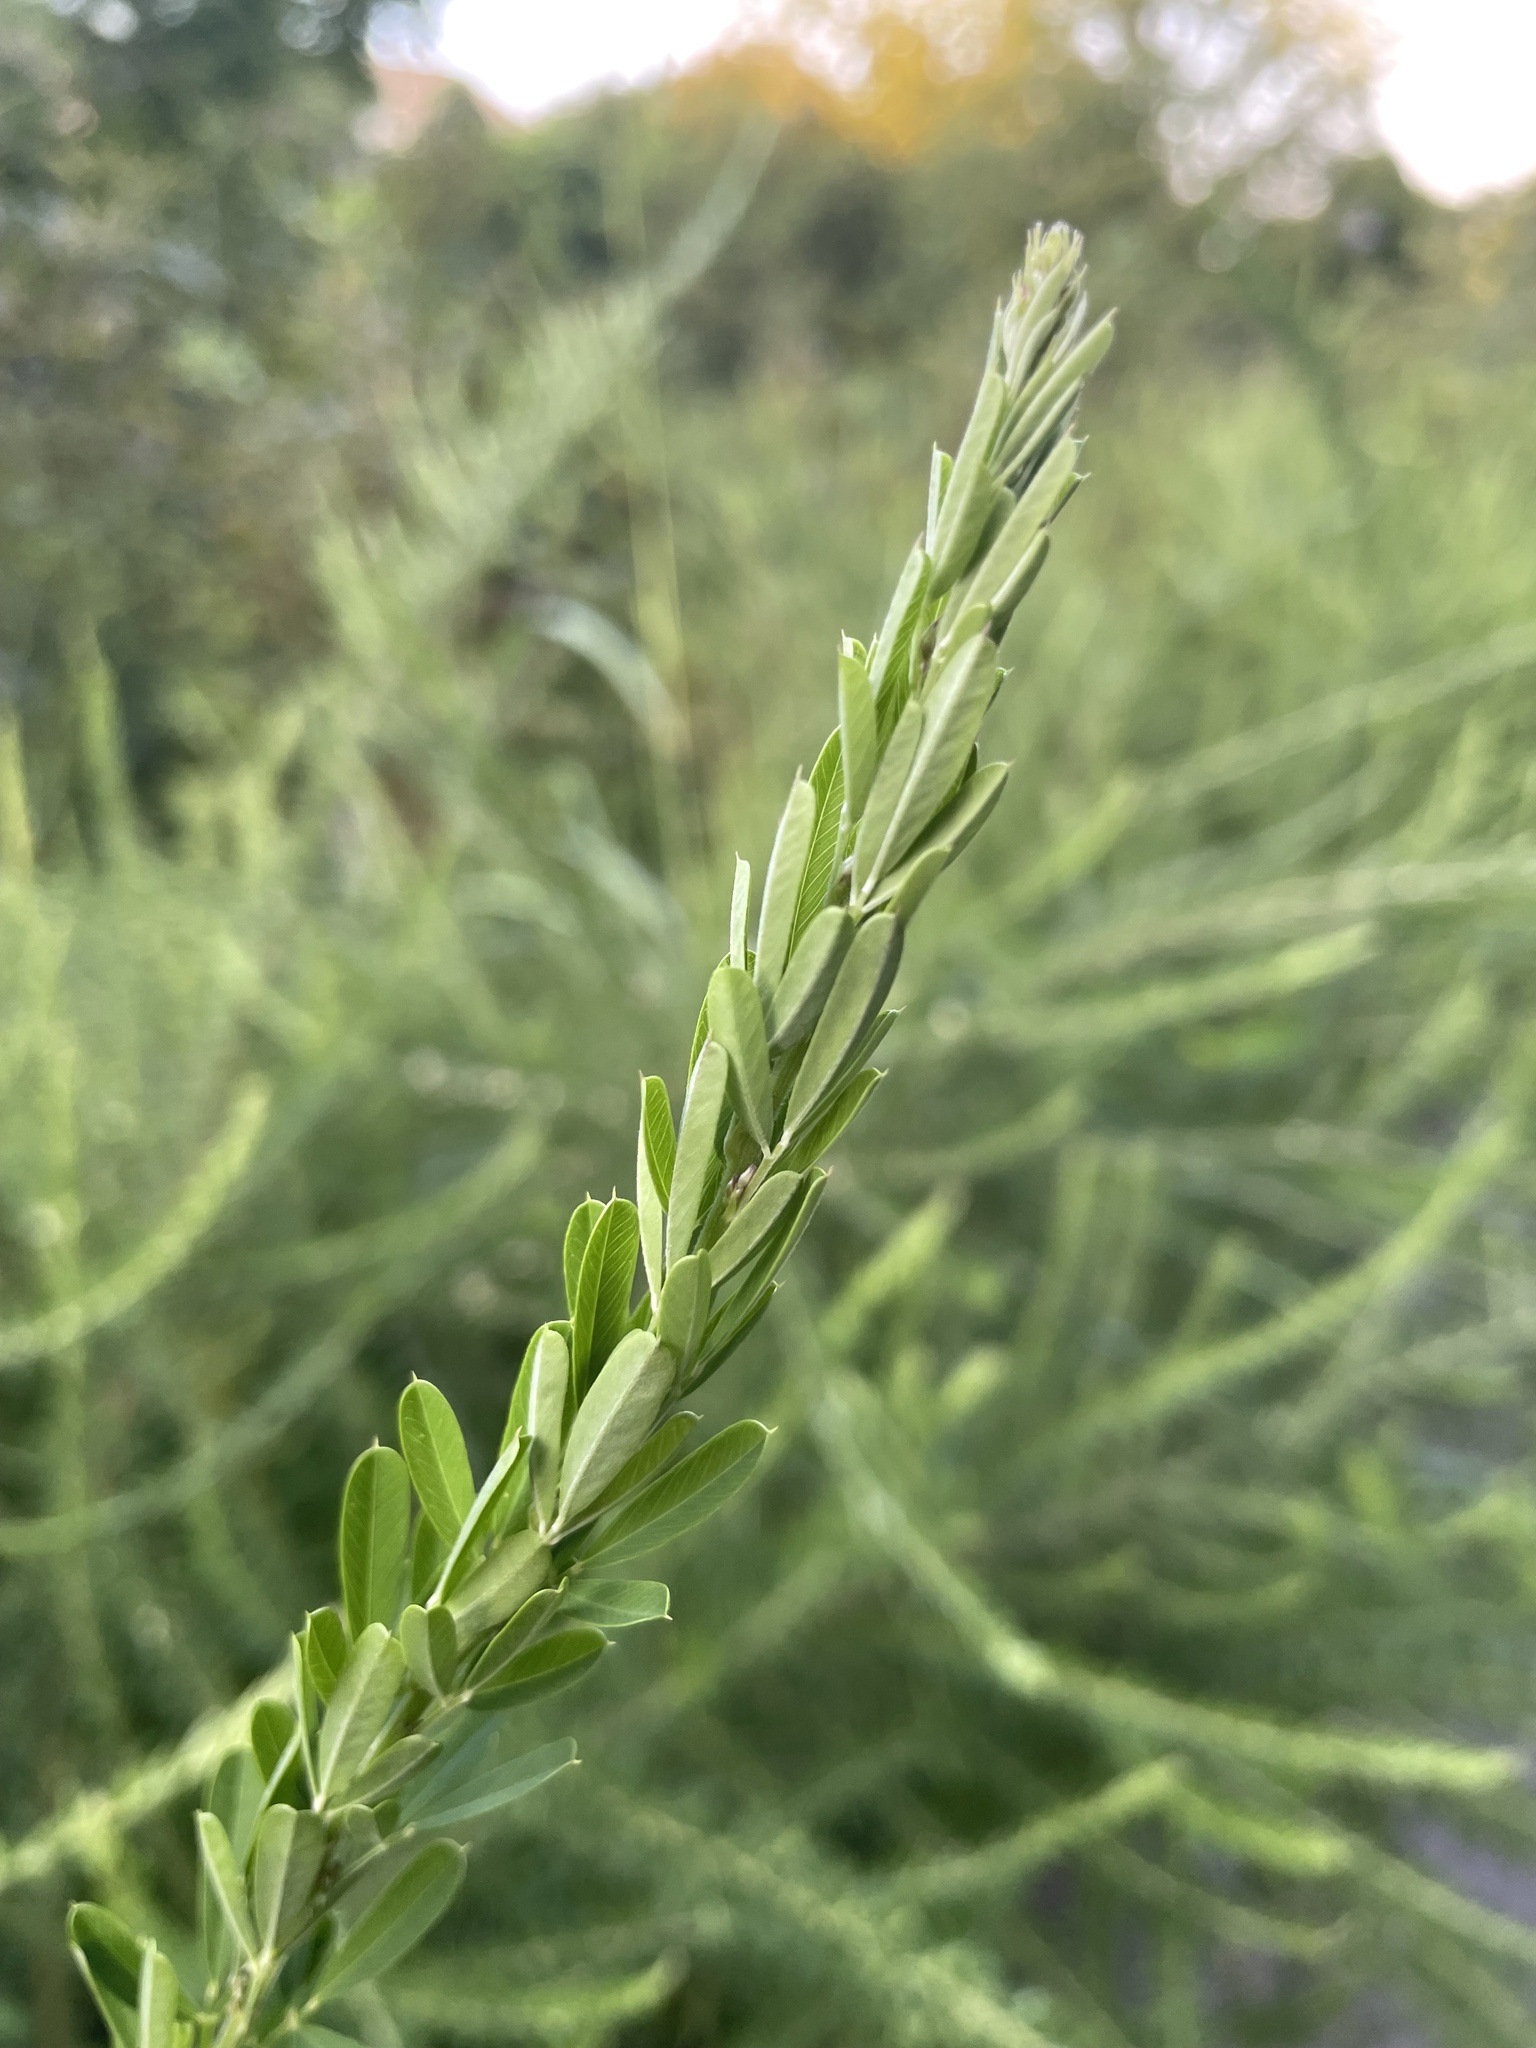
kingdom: Plantae
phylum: Tracheophyta
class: Magnoliopsida
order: Fabales
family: Fabaceae
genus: Lespedeza
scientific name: Lespedeza cuneata
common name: Chinese bush-clover
